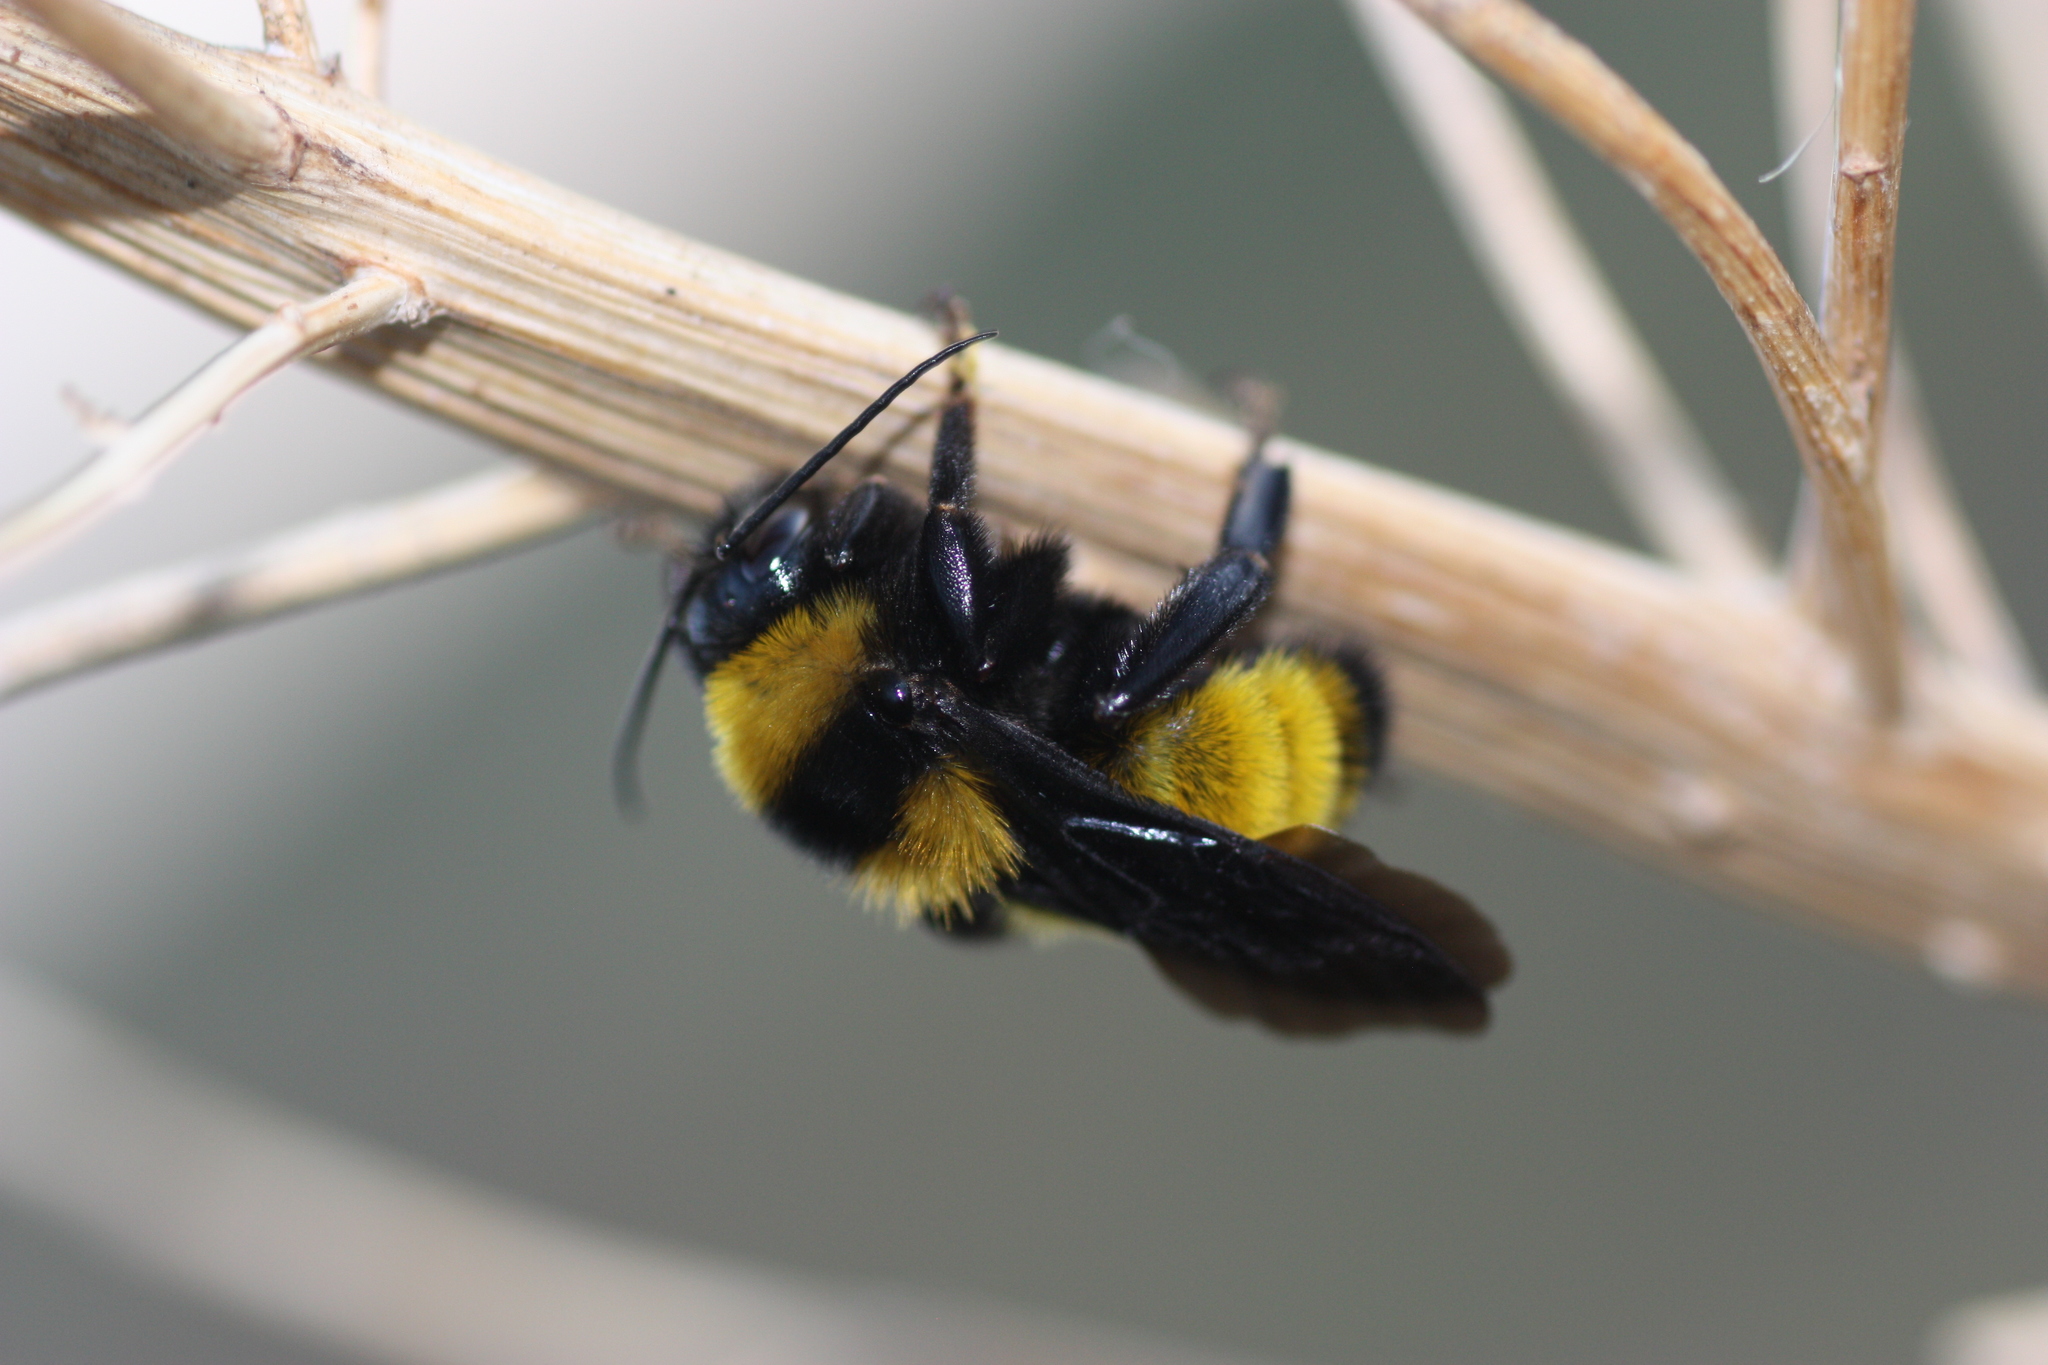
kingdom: Animalia
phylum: Arthropoda
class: Insecta
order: Hymenoptera
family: Apidae
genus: Bombus
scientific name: Bombus sonorus
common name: Sonoran bumble bee
